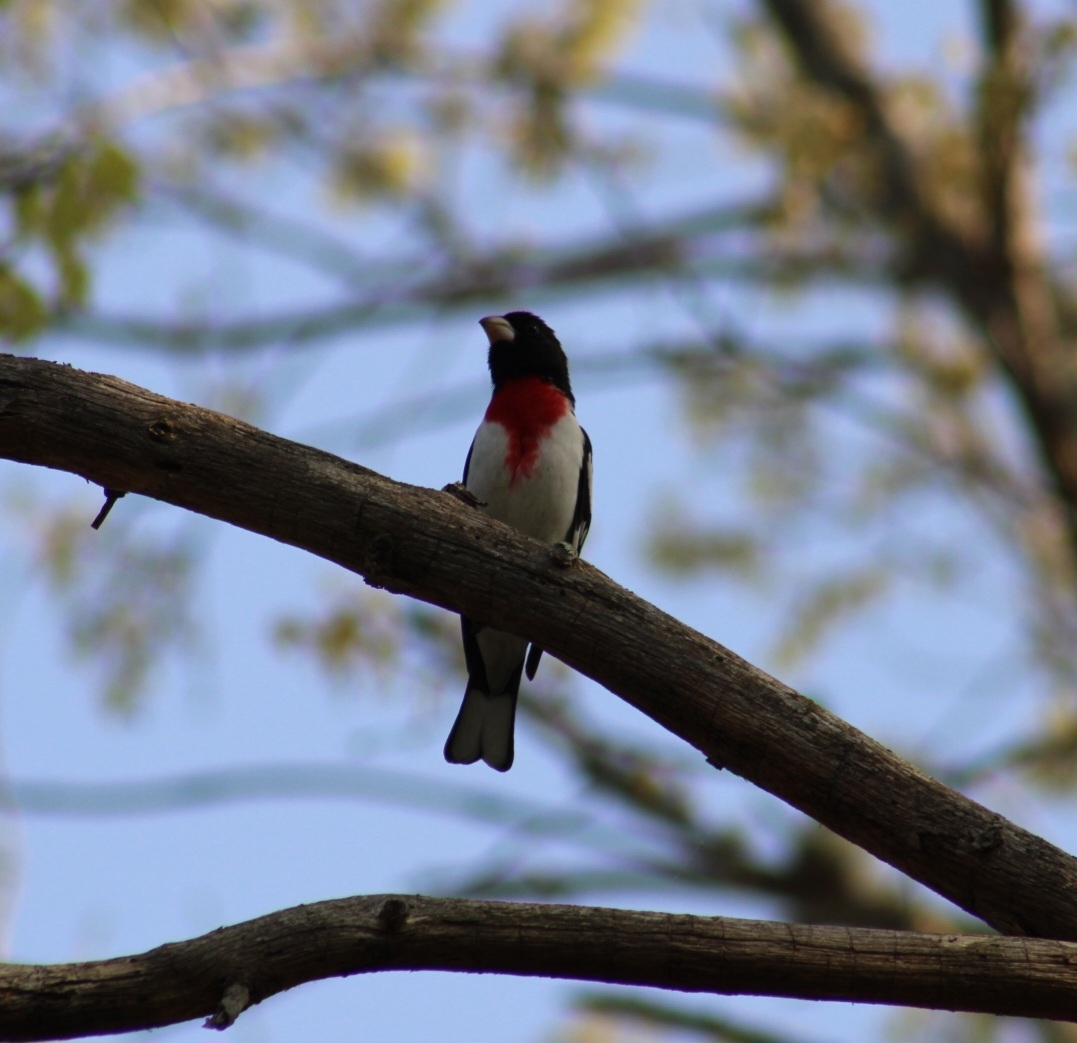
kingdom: Animalia
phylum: Chordata
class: Aves
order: Passeriformes
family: Cardinalidae
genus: Pheucticus
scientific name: Pheucticus ludovicianus
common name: Rose-breasted grosbeak
